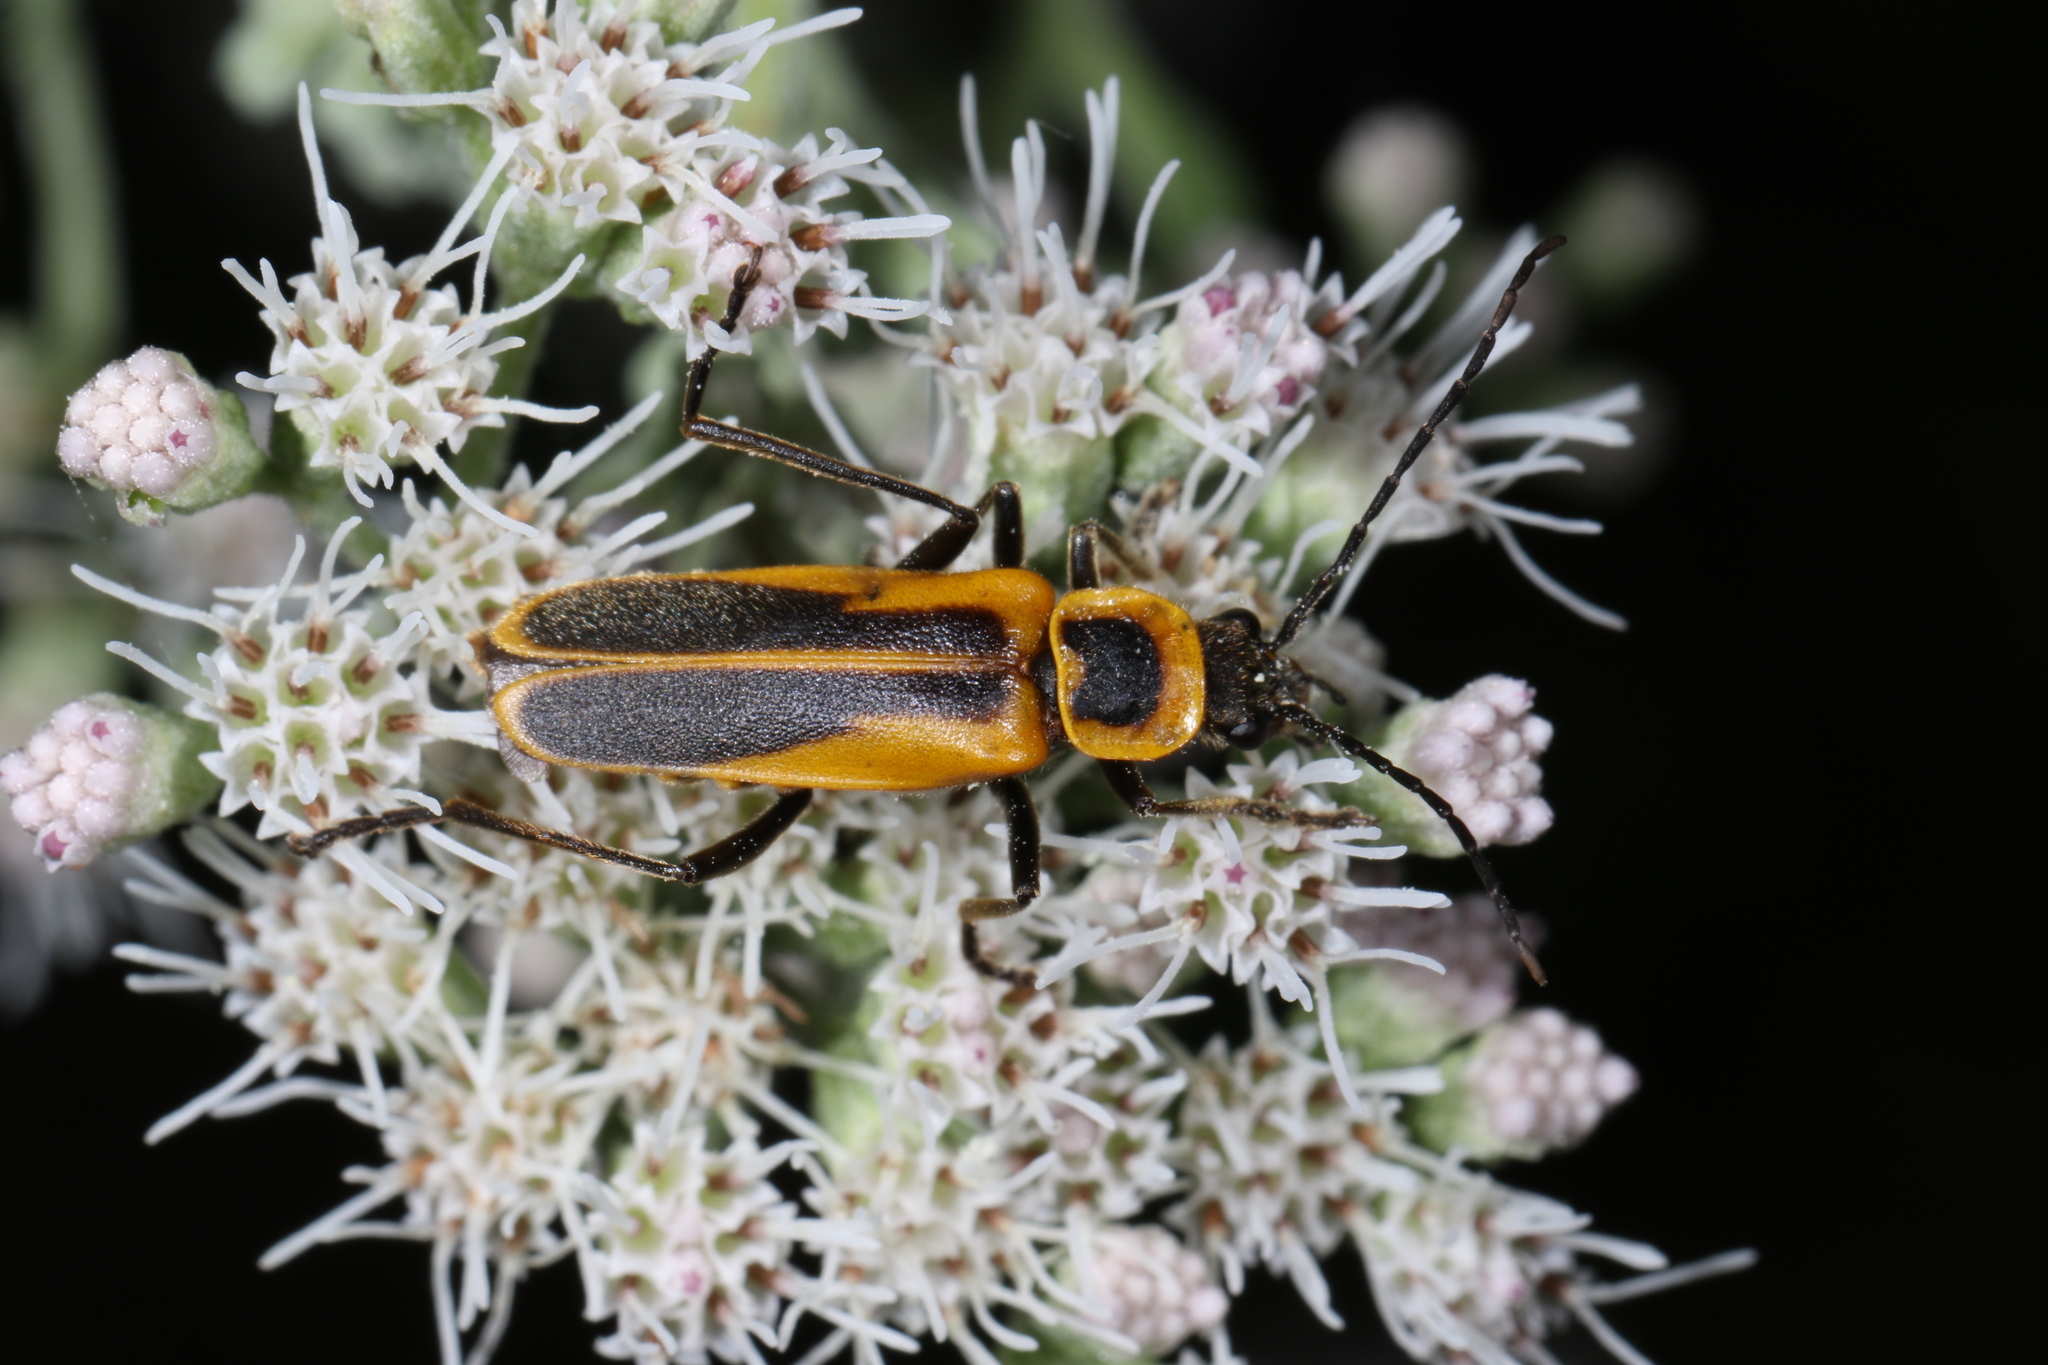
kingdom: Animalia
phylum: Arthropoda
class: Insecta
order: Coleoptera
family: Cantharidae
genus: Chauliognathus
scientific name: Chauliognathus pensylvanicus
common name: Goldenrod soldier beetle
